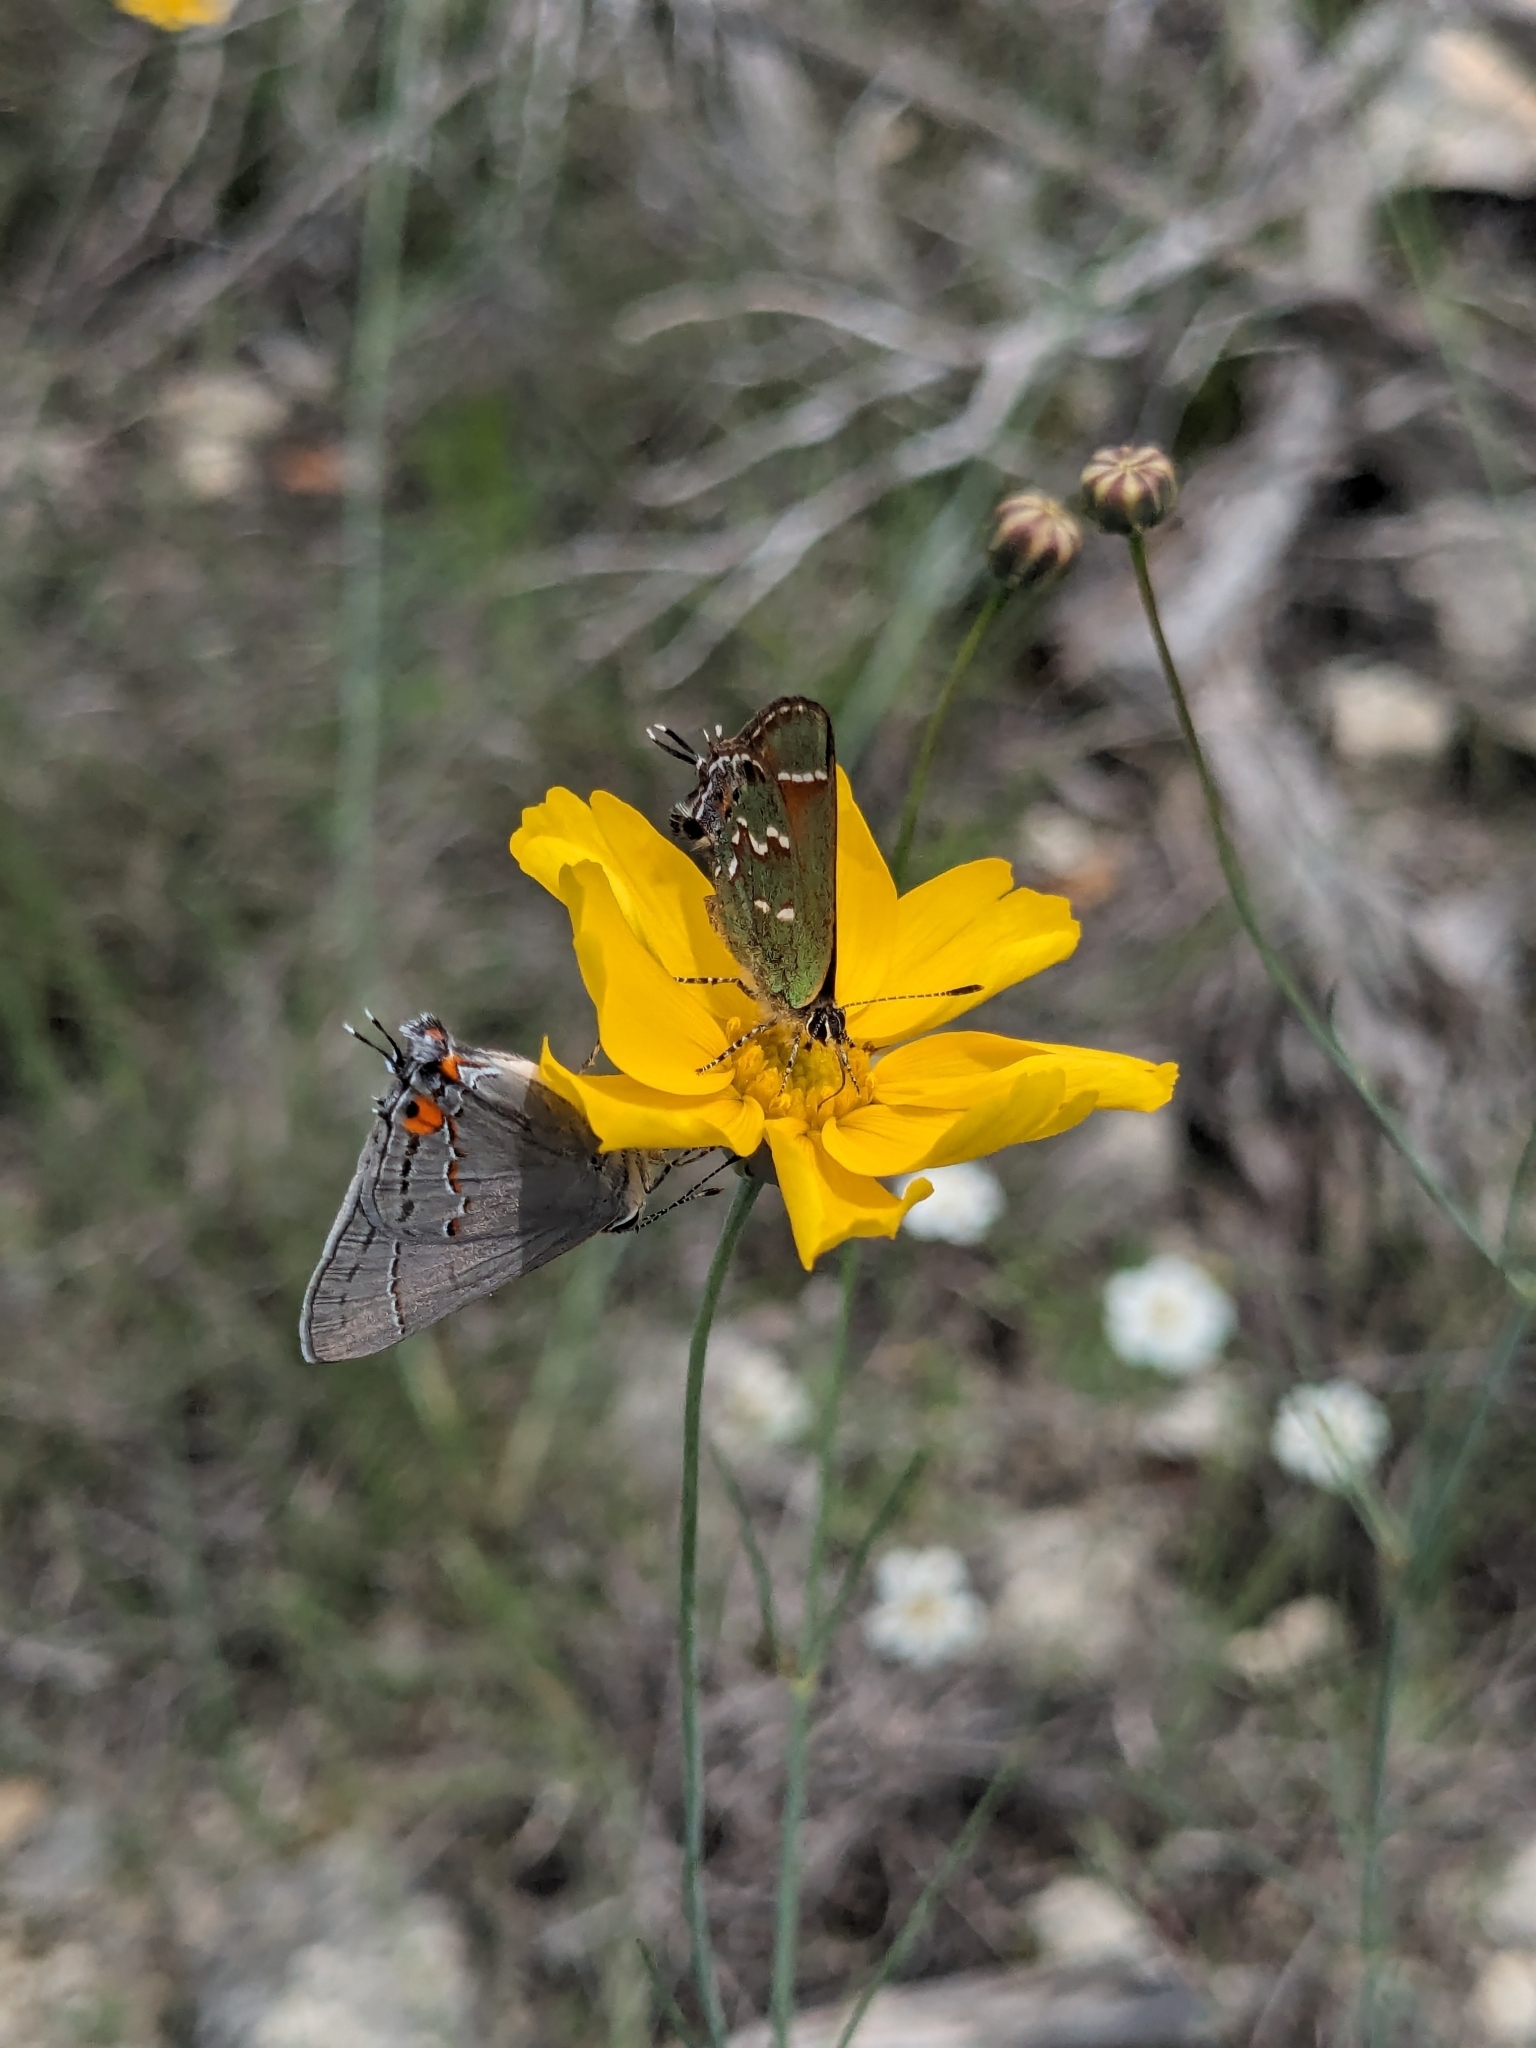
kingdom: Animalia
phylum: Arthropoda
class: Insecta
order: Lepidoptera
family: Lycaenidae
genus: Mitoura
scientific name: Mitoura gryneus
